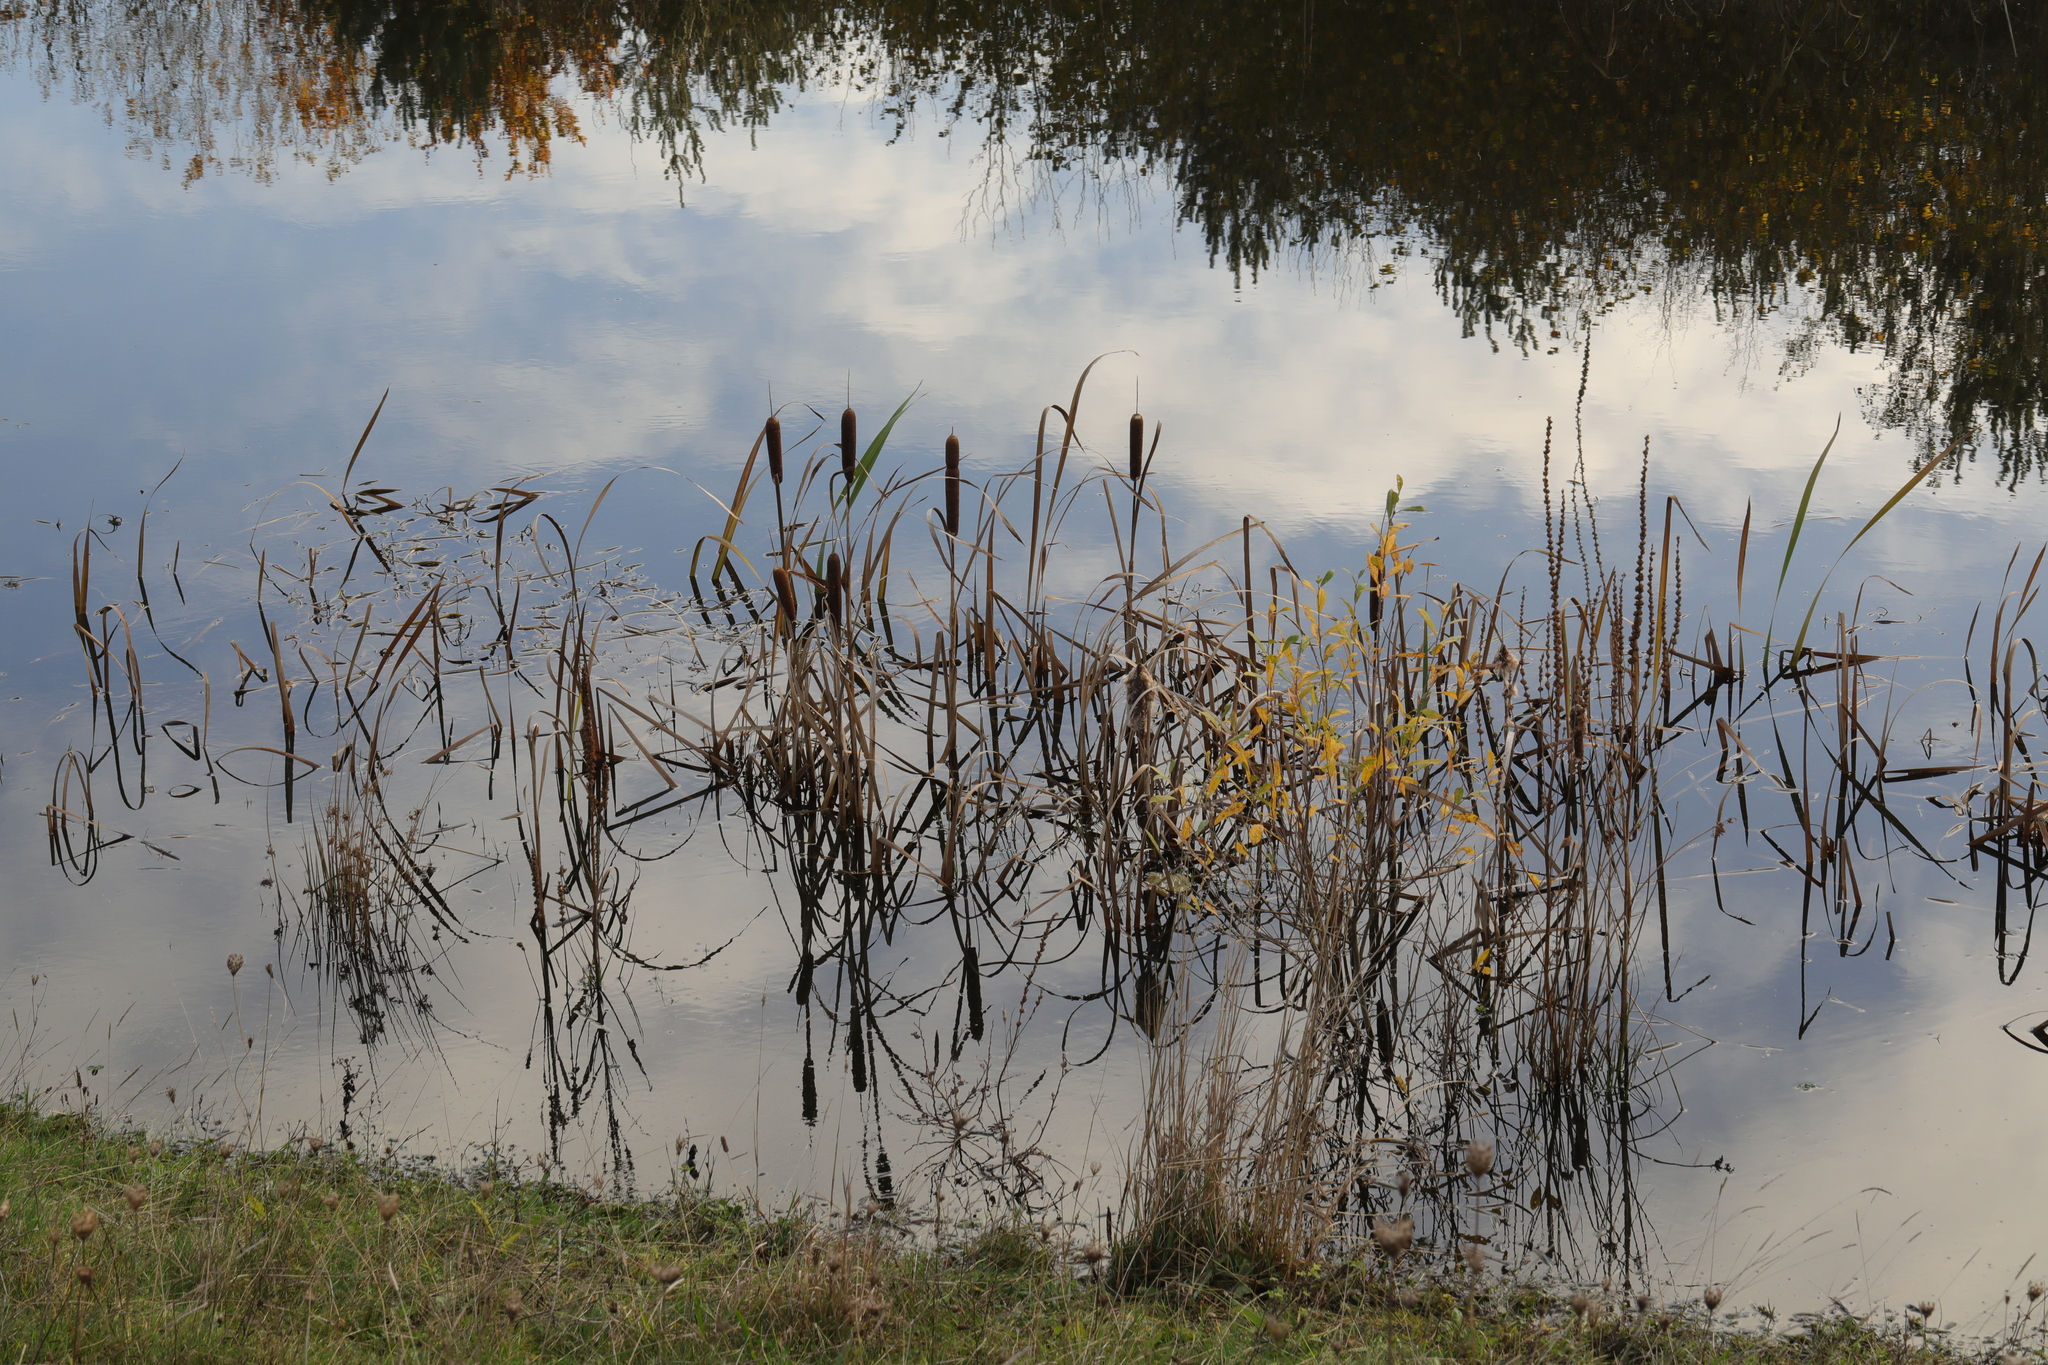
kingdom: Plantae
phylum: Tracheophyta
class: Liliopsida
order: Poales
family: Typhaceae
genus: Typha
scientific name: Typha latifolia
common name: Broadleaf cattail
